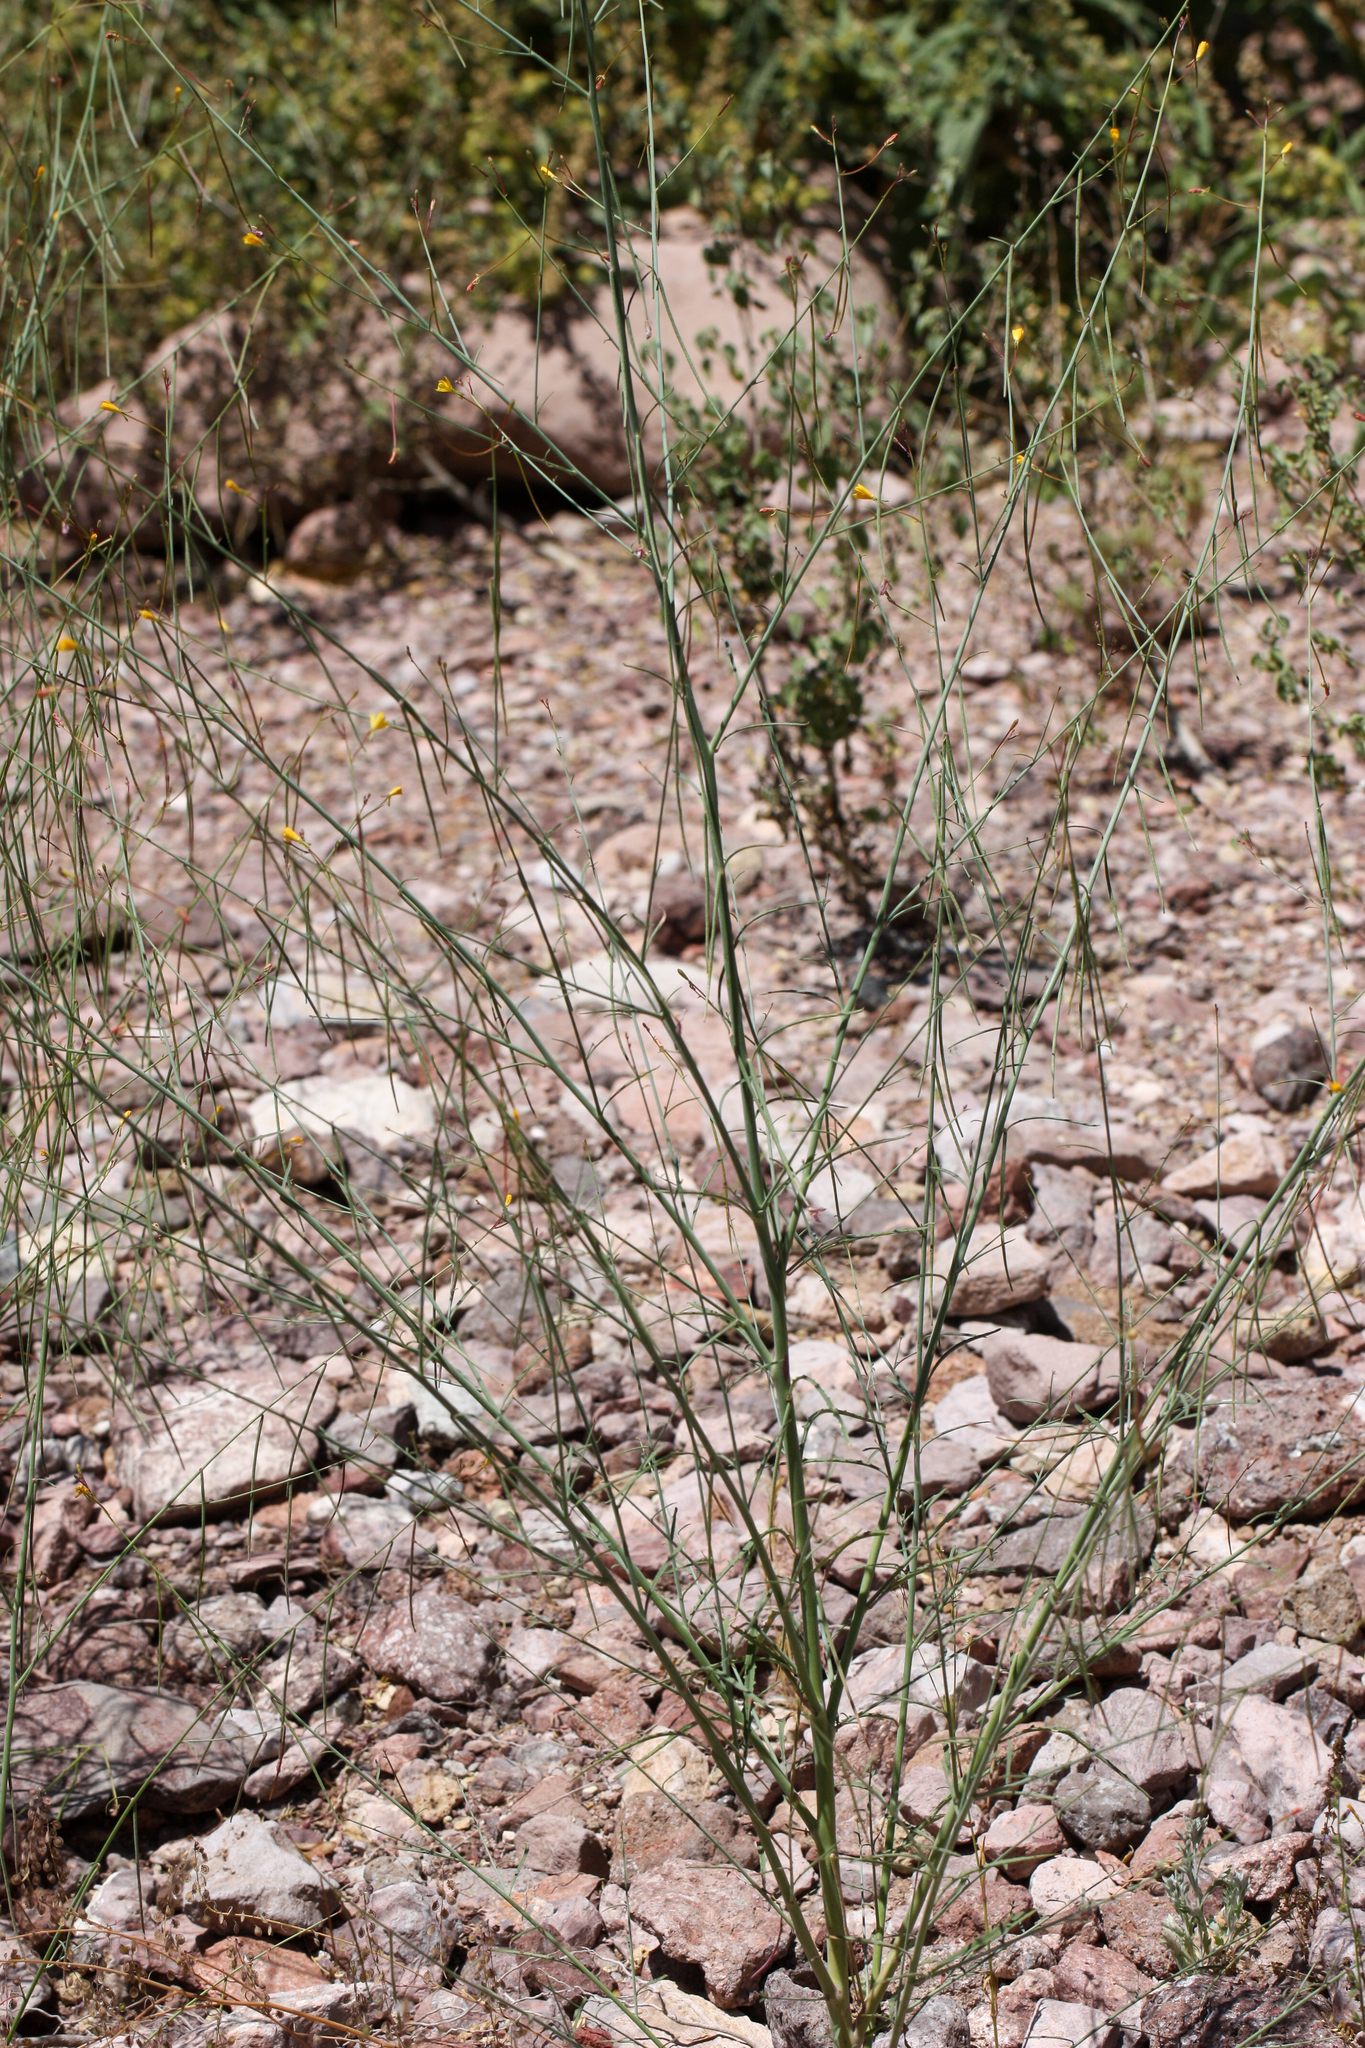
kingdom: Plantae
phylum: Tracheophyta
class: Magnoliopsida
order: Myrtales
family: Onagraceae
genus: Eulobus
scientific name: Eulobus californicus
